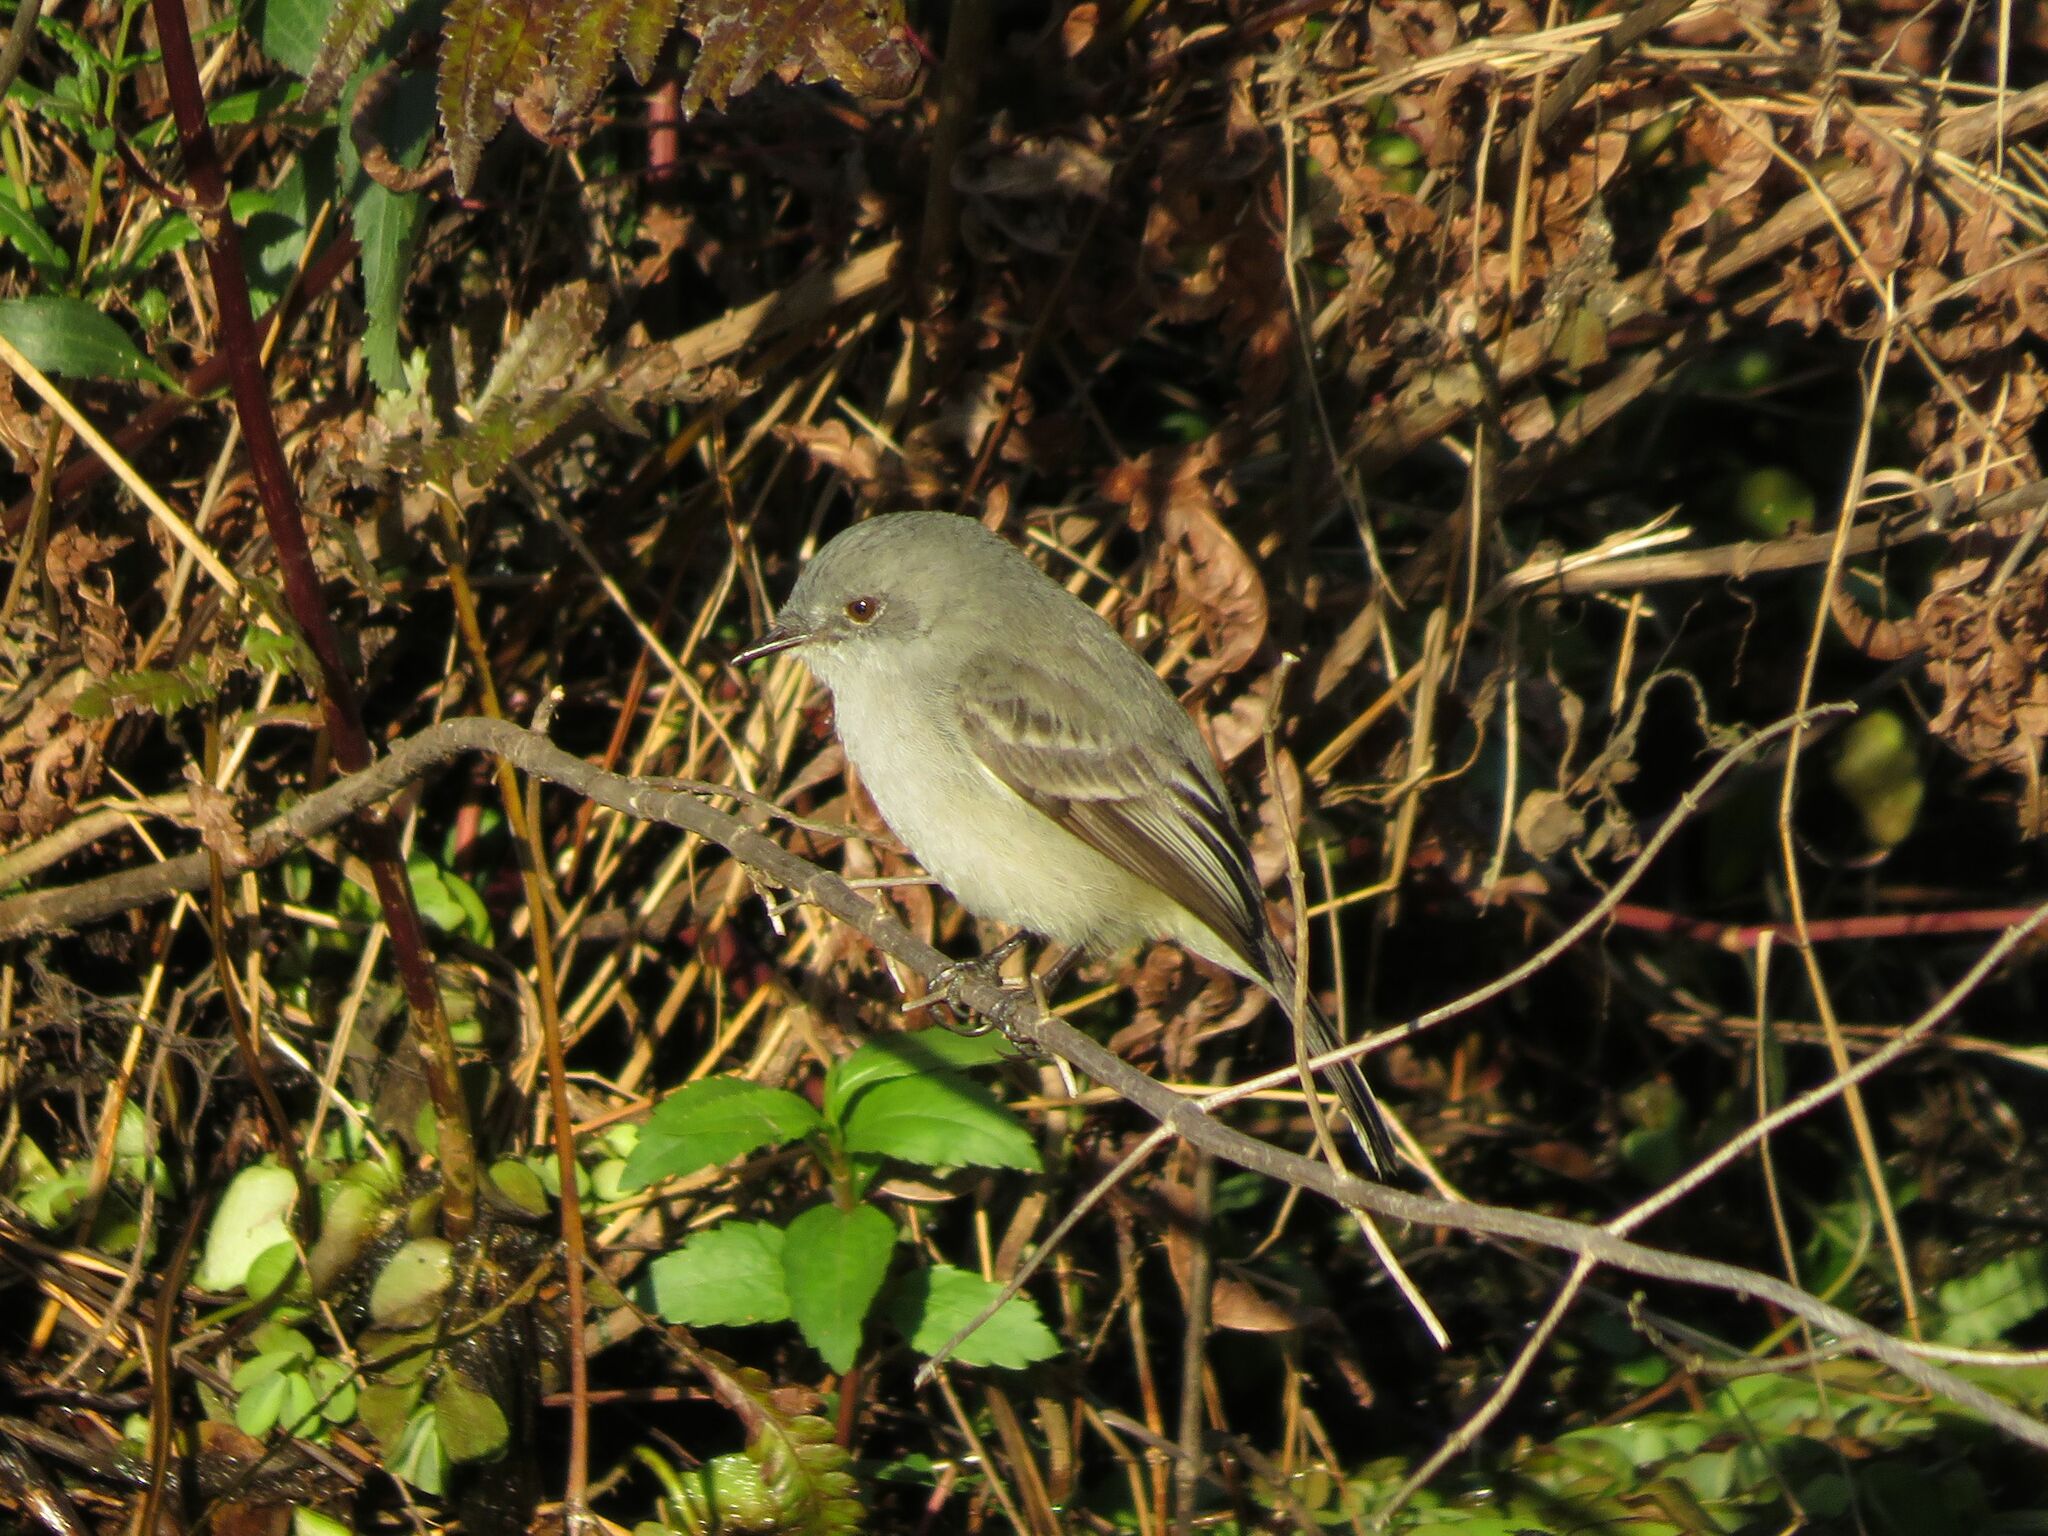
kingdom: Animalia
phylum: Chordata
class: Aves
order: Passeriformes
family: Tyrannidae
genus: Serpophaga
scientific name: Serpophaga nigricans
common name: Sooty tyrannulet
